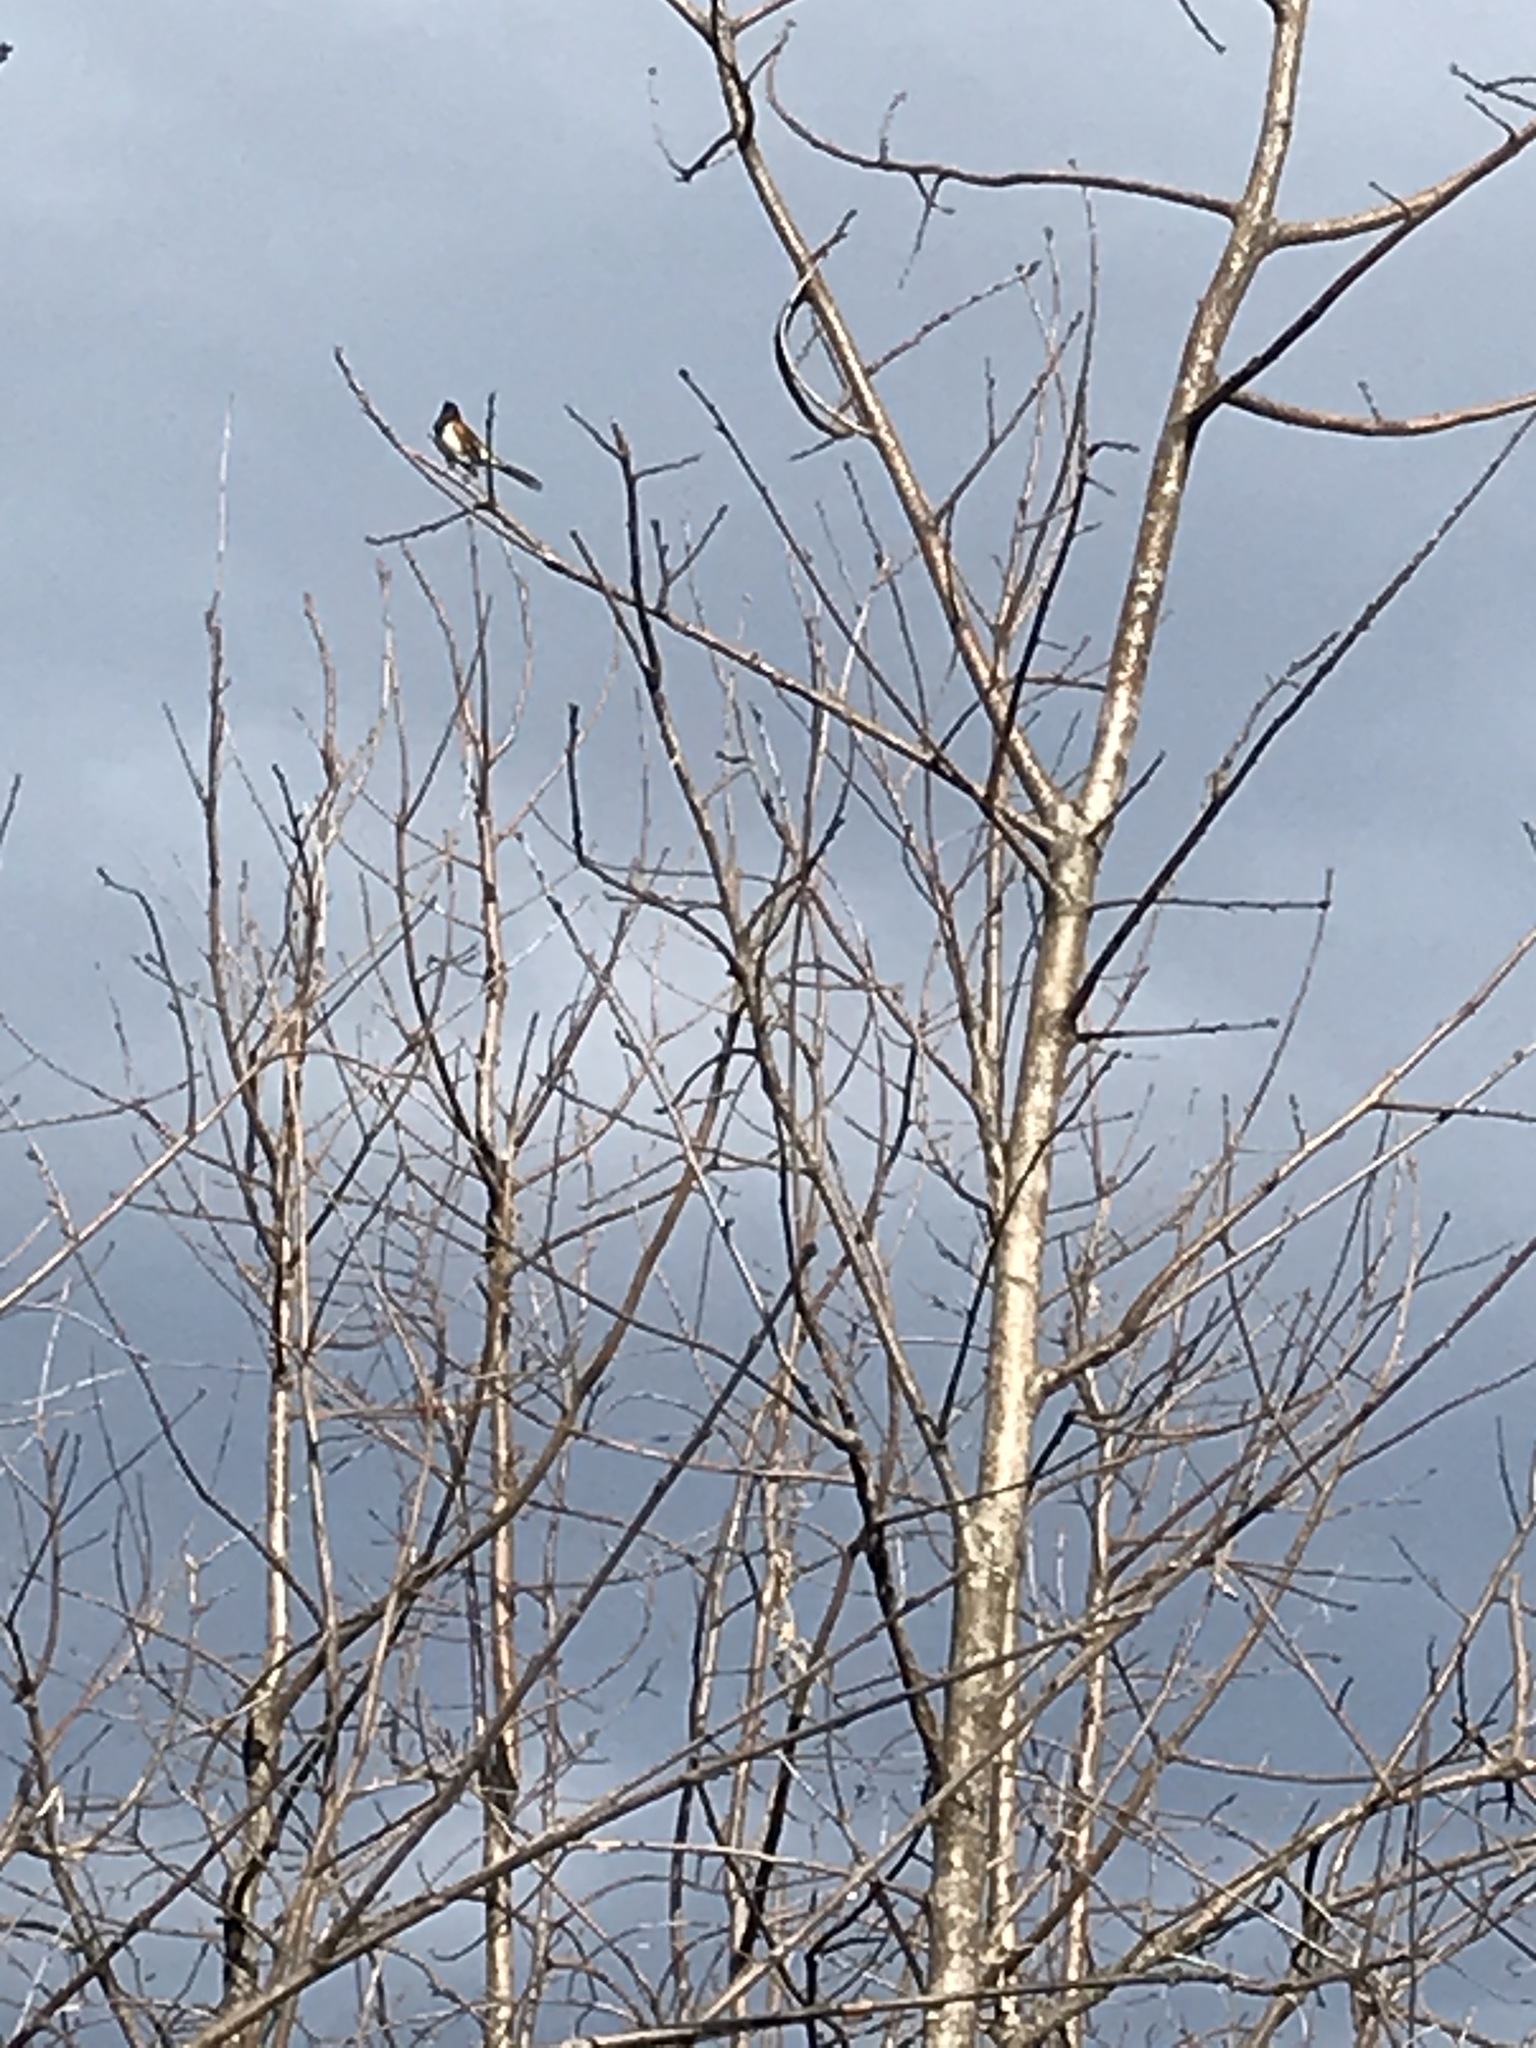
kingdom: Animalia
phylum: Chordata
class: Aves
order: Passeriformes
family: Passerellidae
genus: Pipilo
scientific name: Pipilo erythrophthalmus
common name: Eastern towhee
